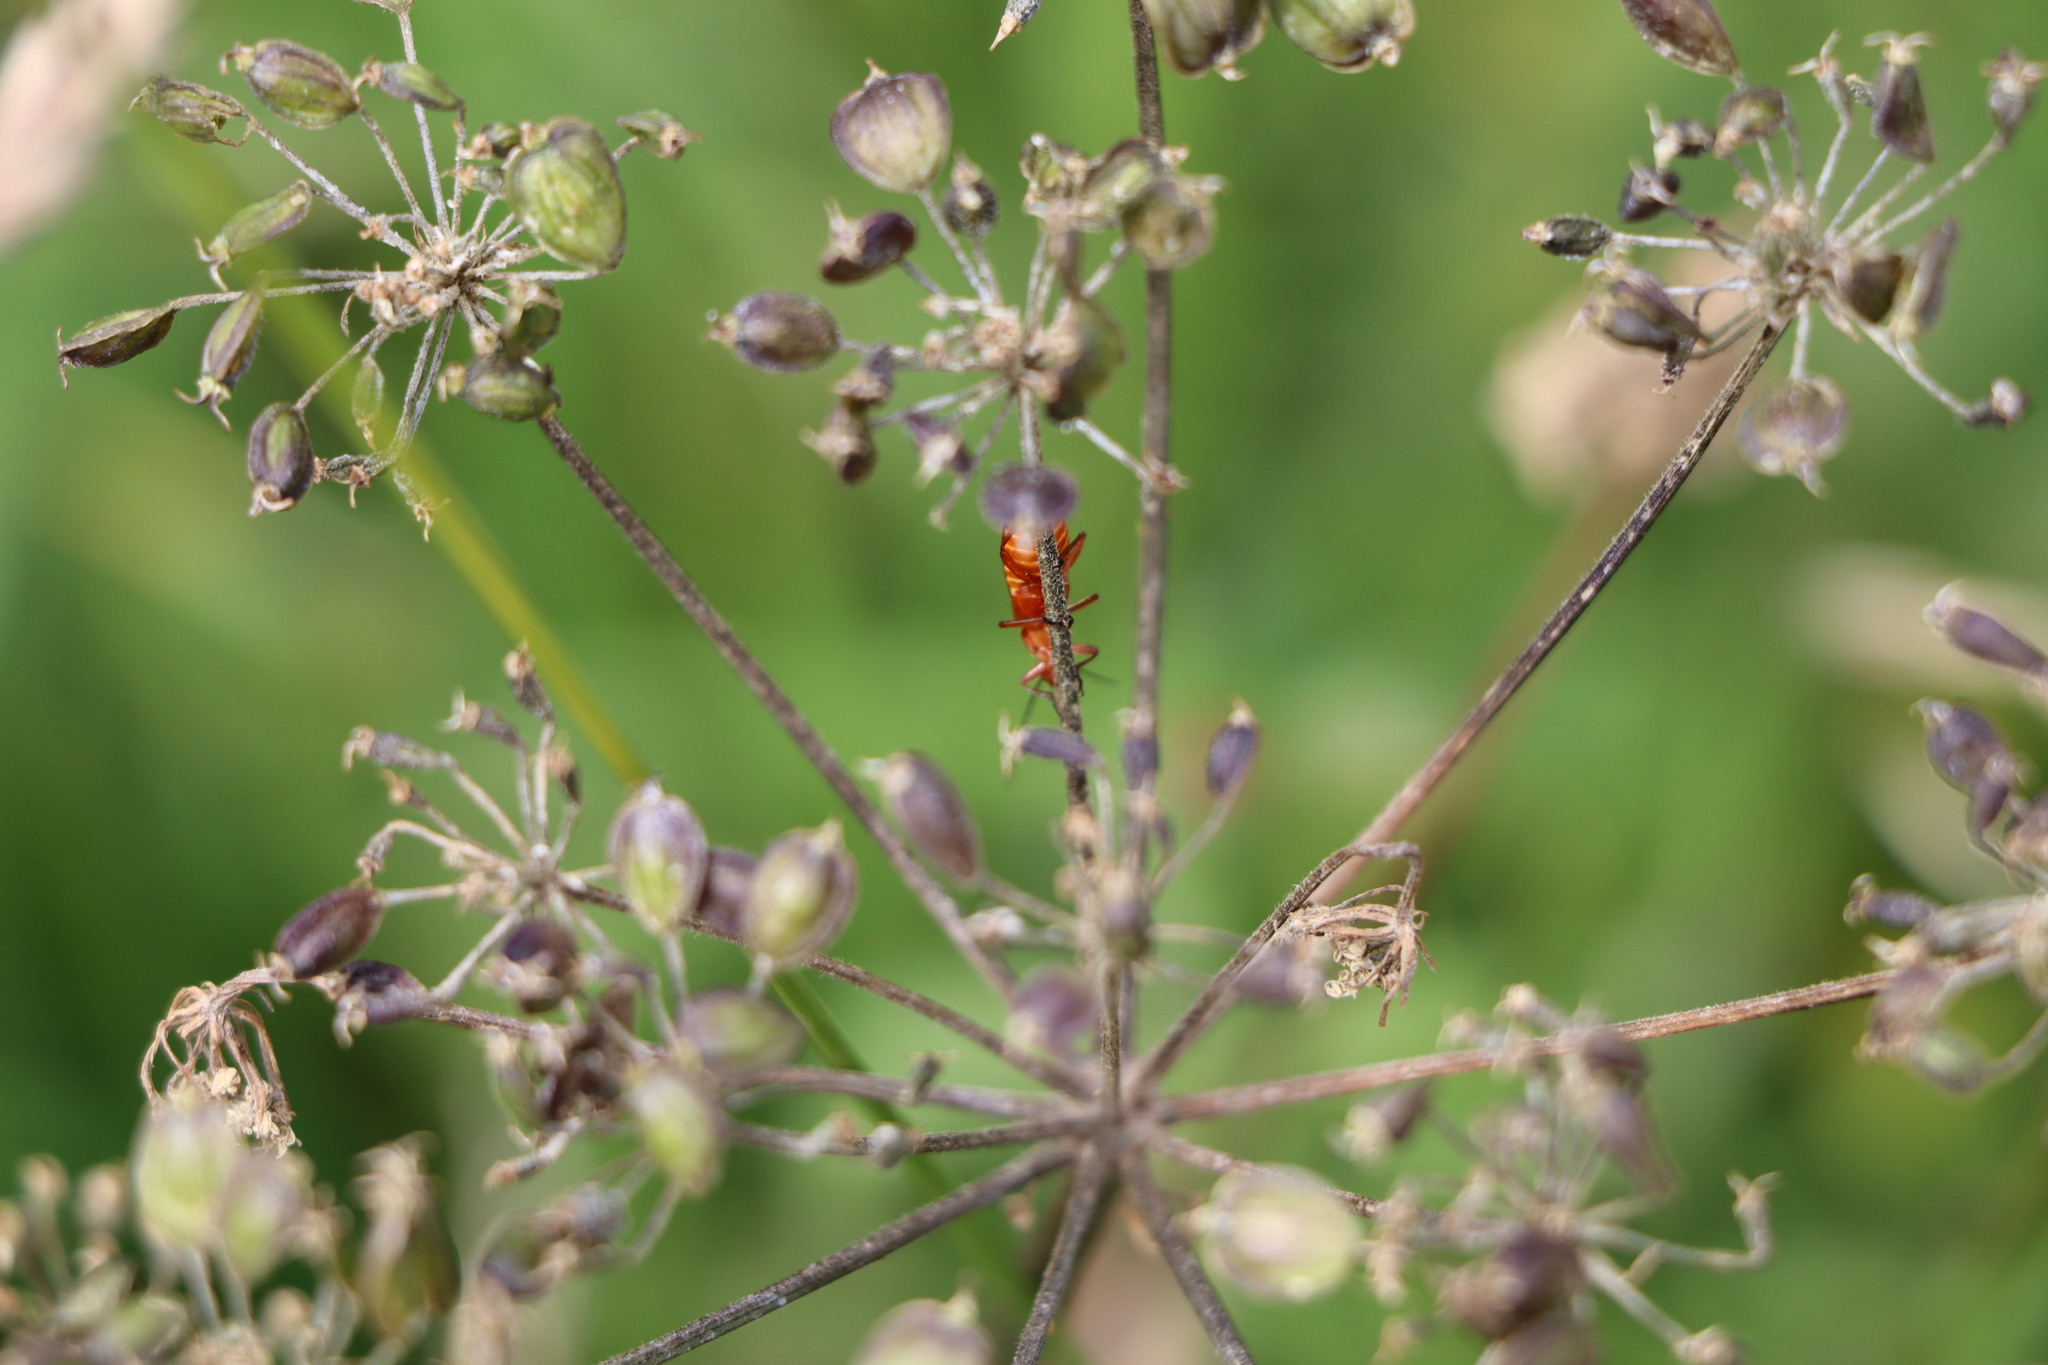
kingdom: Animalia
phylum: Arthropoda
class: Insecta
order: Coleoptera
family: Cantharidae
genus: Rhagonycha
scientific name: Rhagonycha fulva
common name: Common red soldier beetle
